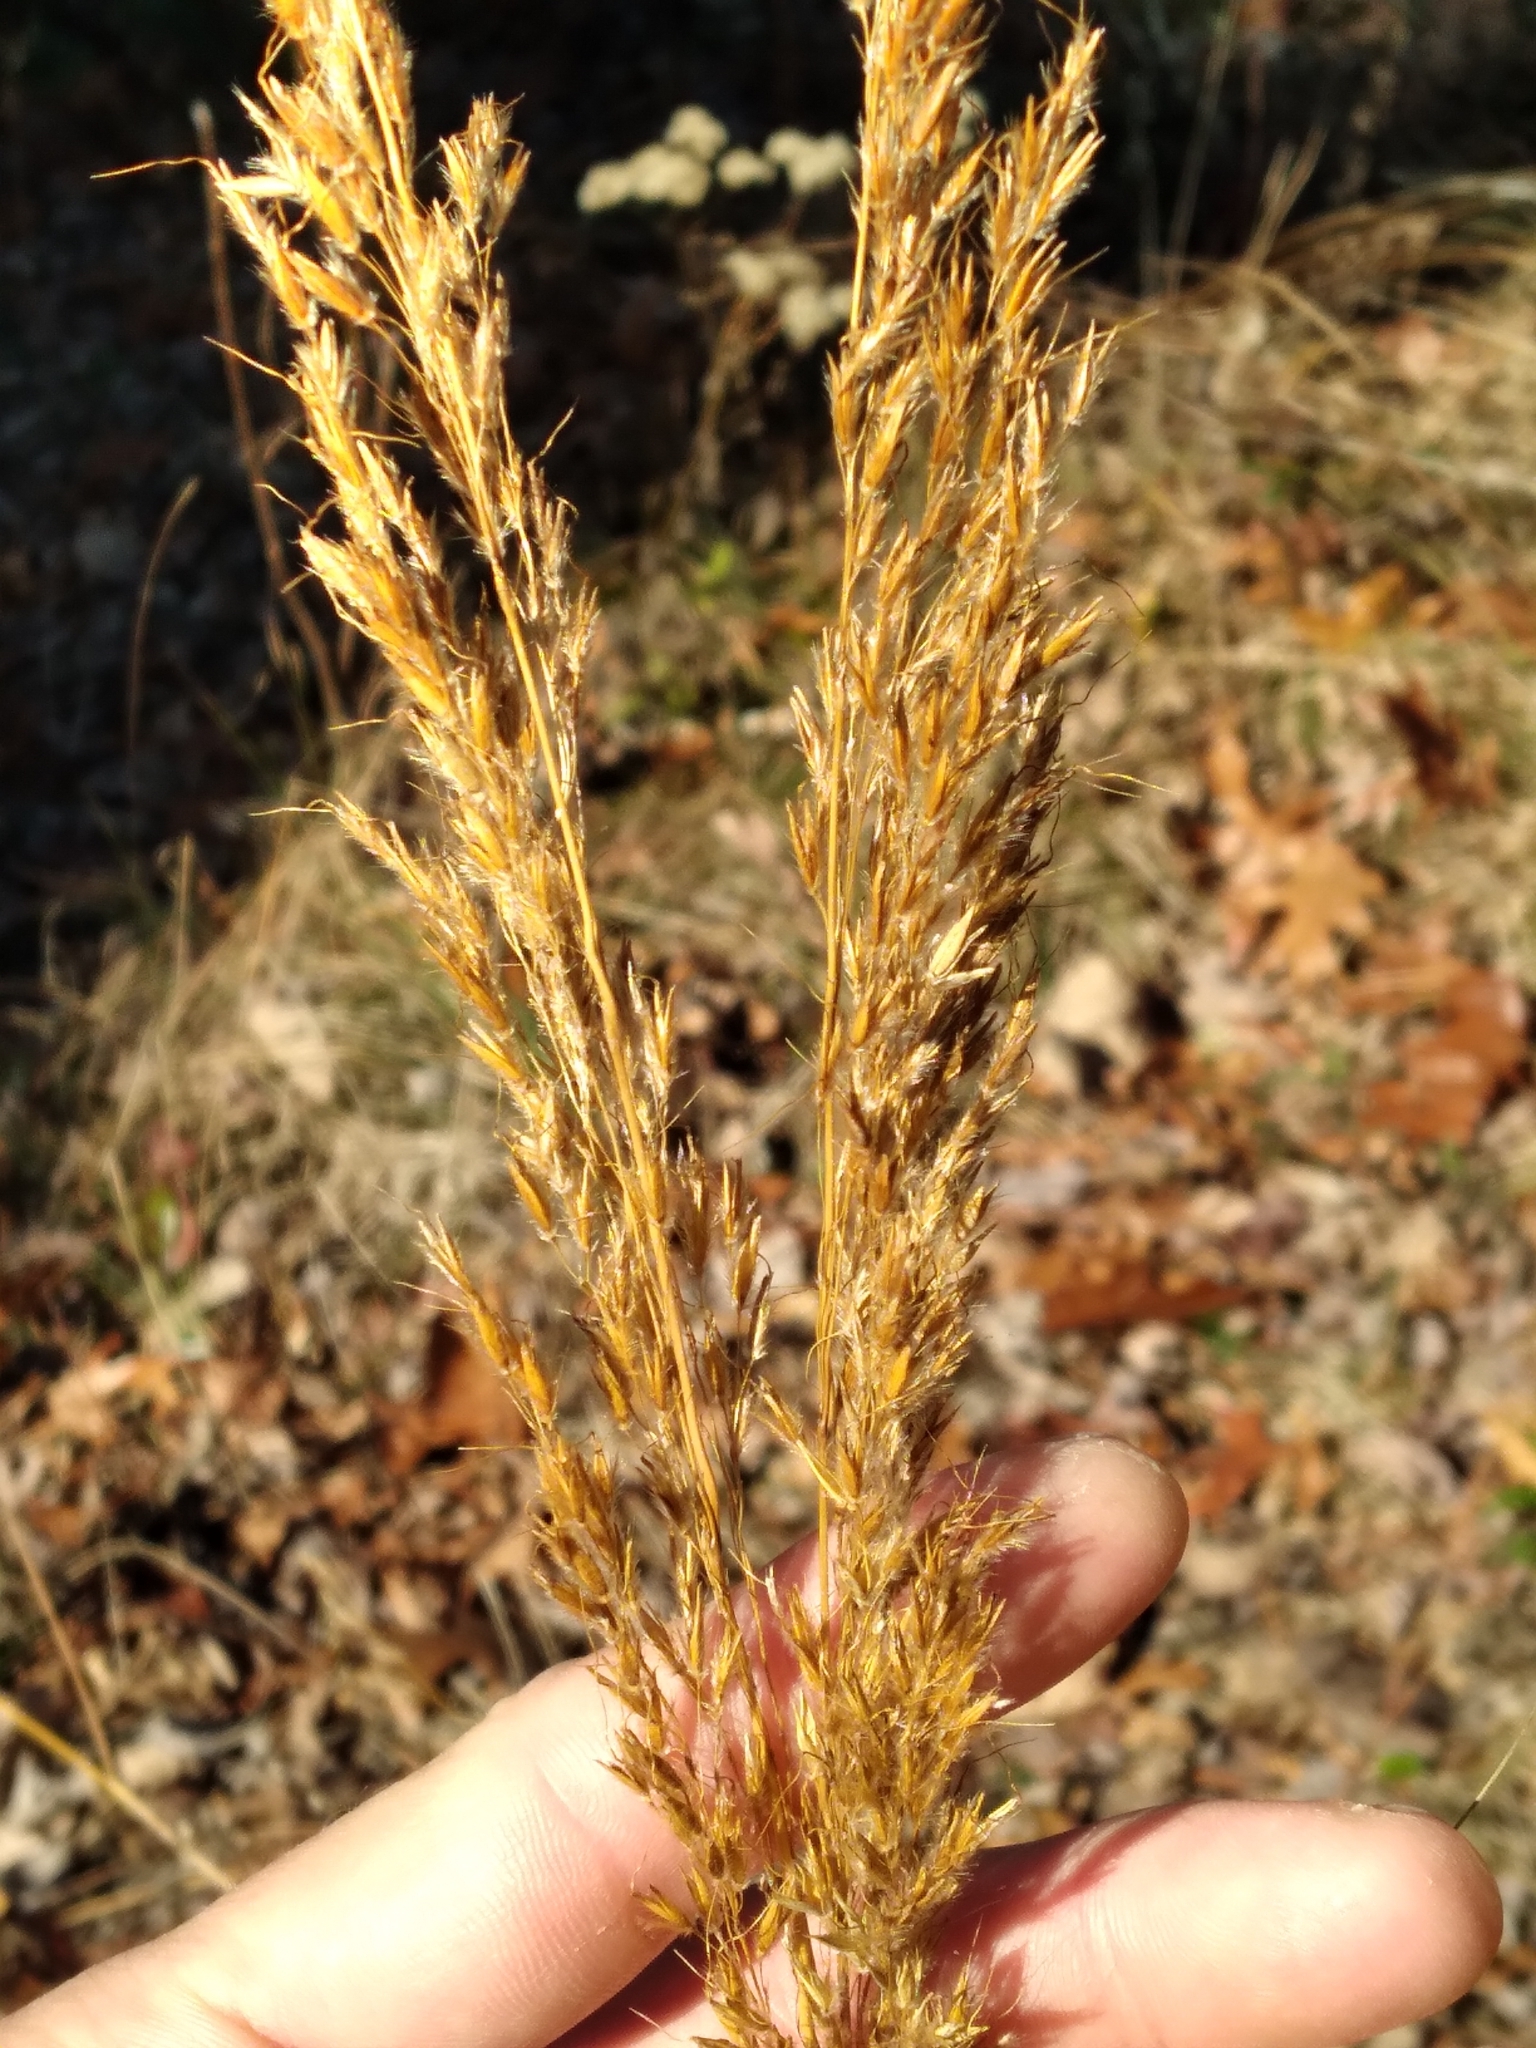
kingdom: Plantae
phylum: Tracheophyta
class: Liliopsida
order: Poales
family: Poaceae
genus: Sorghastrum
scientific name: Sorghastrum nutans
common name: Indian grass
